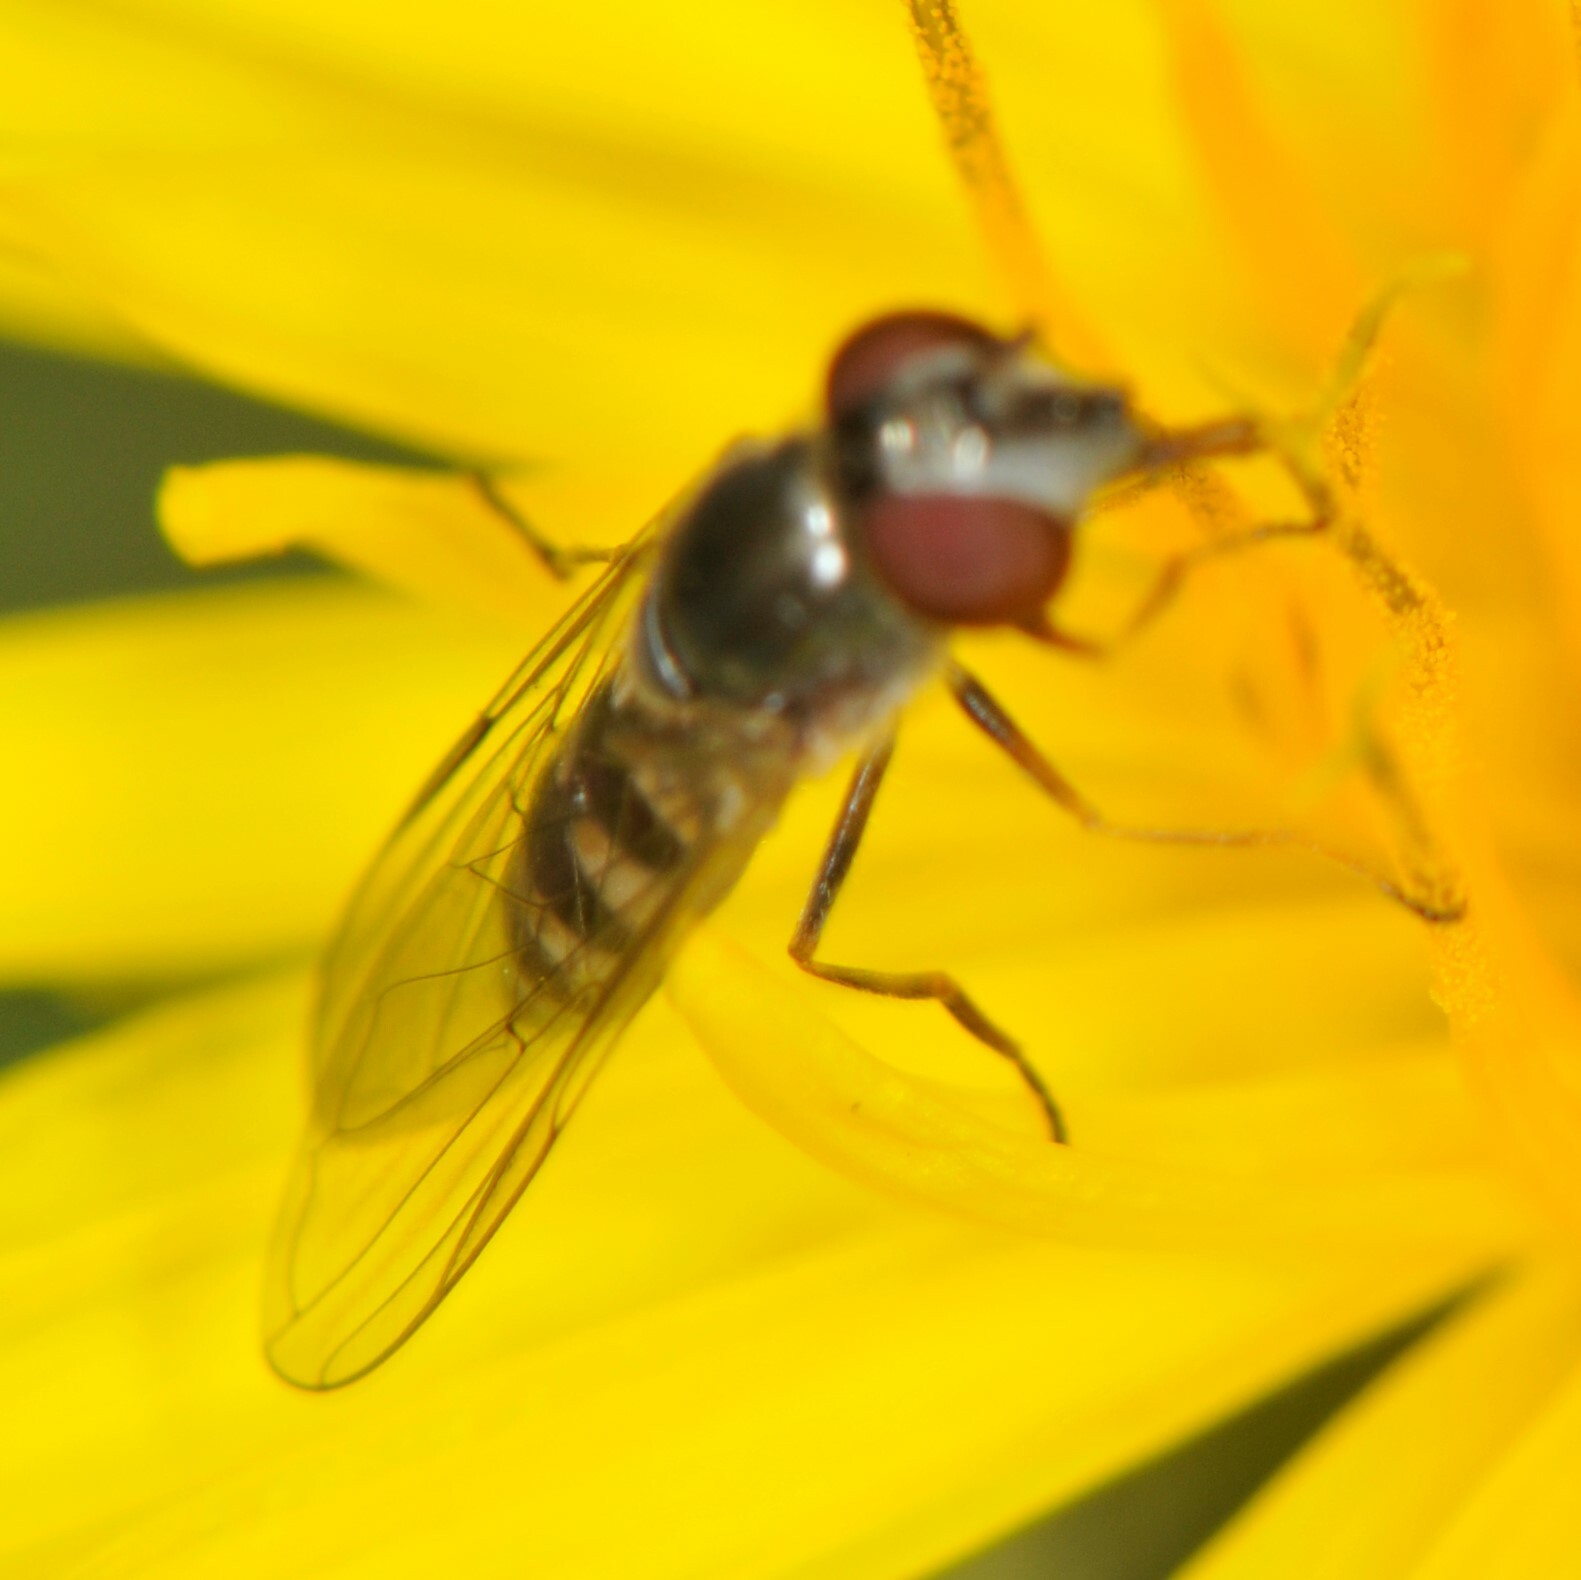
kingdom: Animalia
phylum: Arthropoda
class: Insecta
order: Diptera
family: Syrphidae
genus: Platycheirus
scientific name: Platycheirus trichopus
